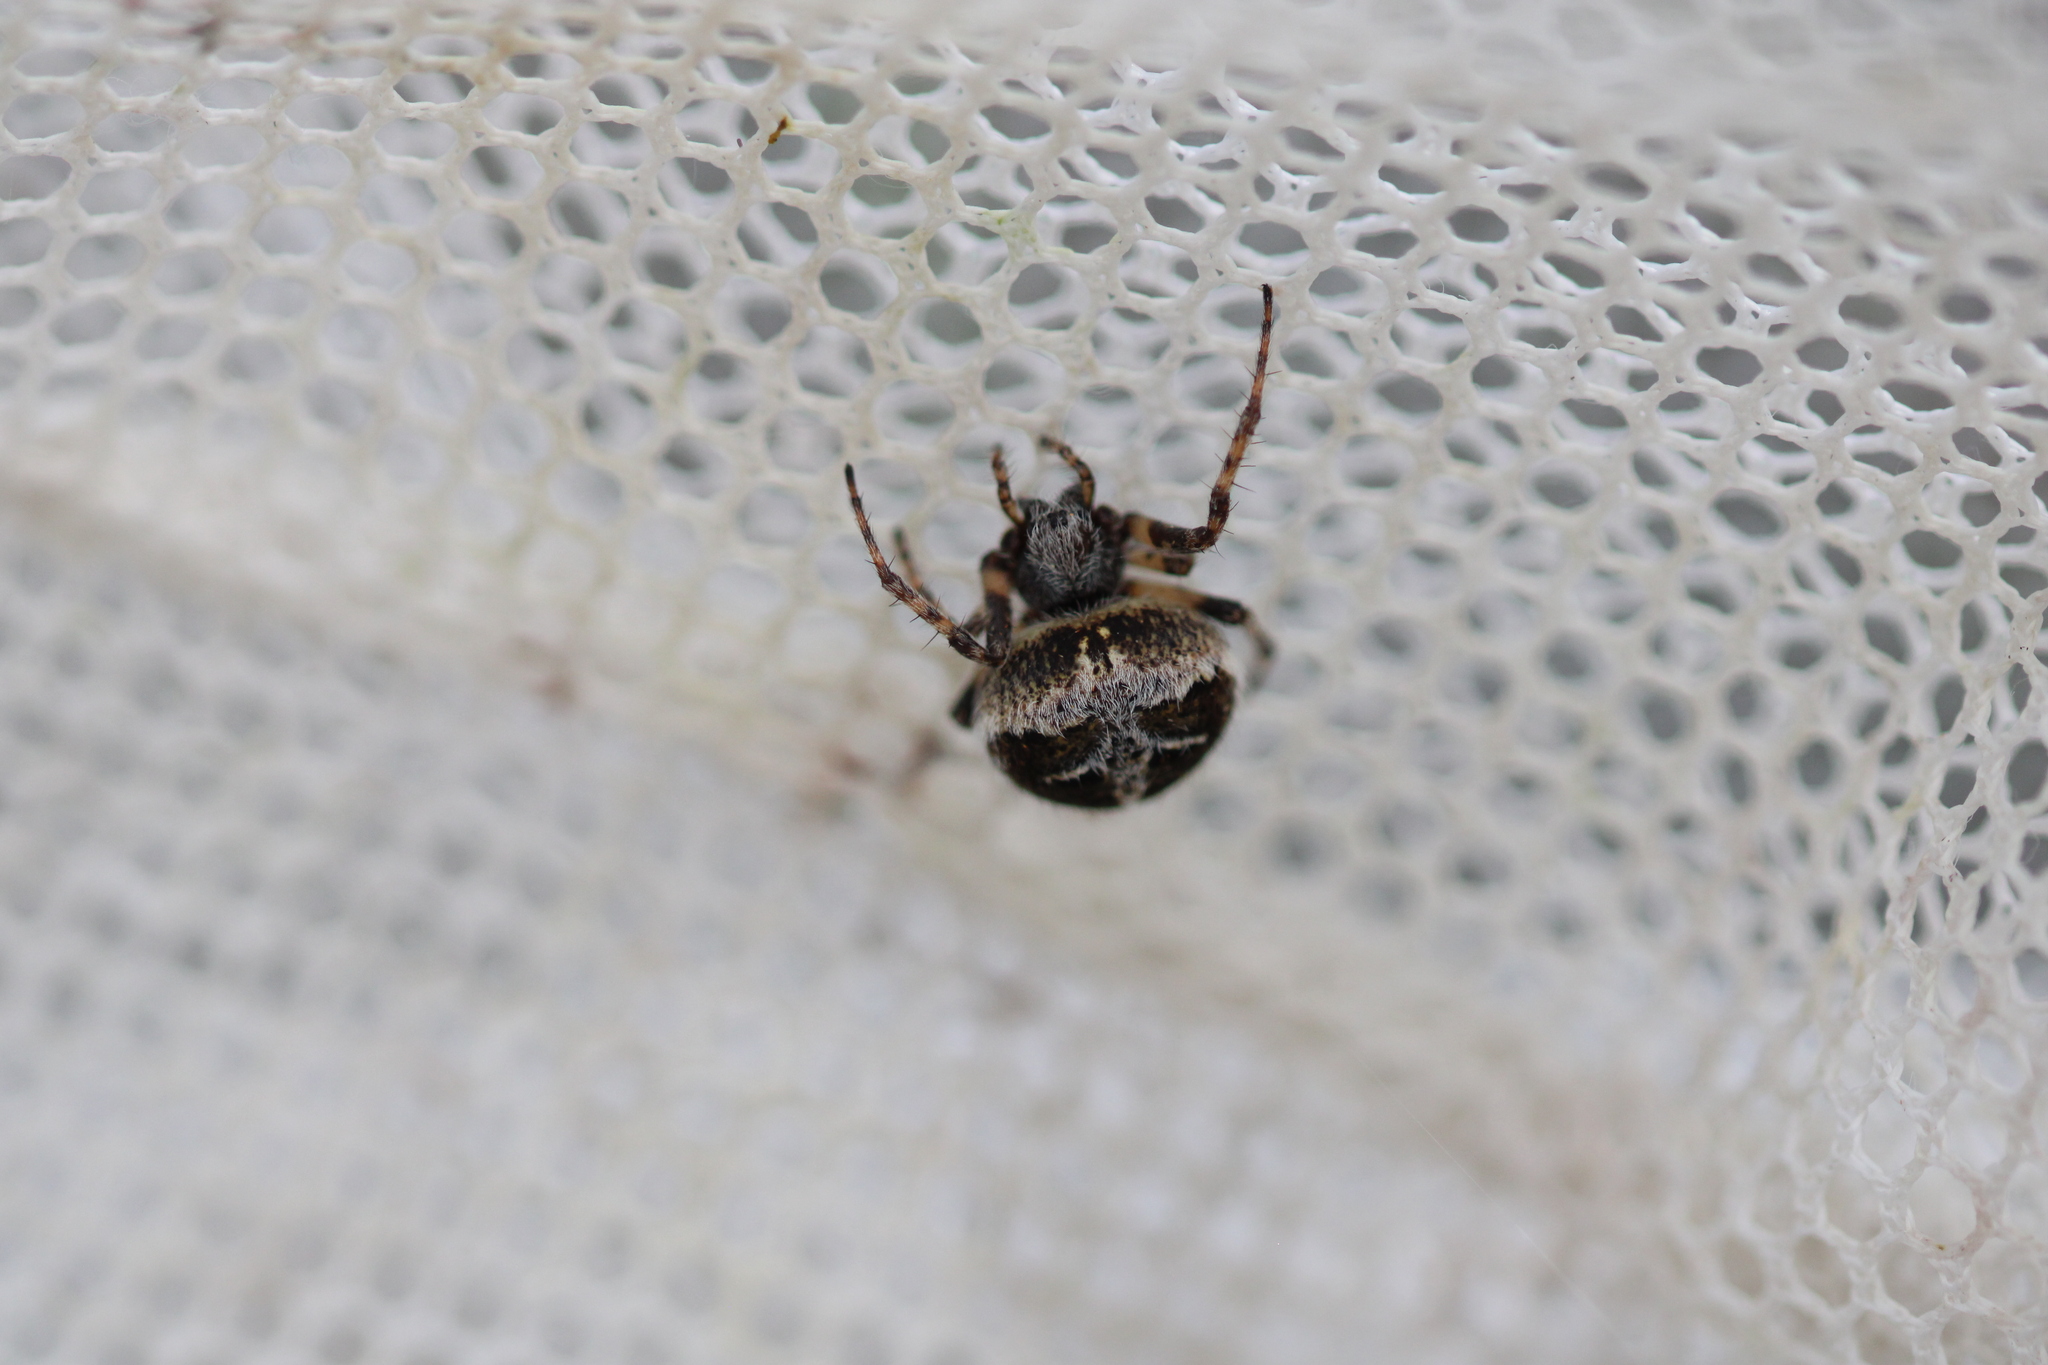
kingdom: Animalia
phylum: Arthropoda
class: Arachnida
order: Araneae
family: Araneidae
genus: Agalenatea
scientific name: Agalenatea redii
